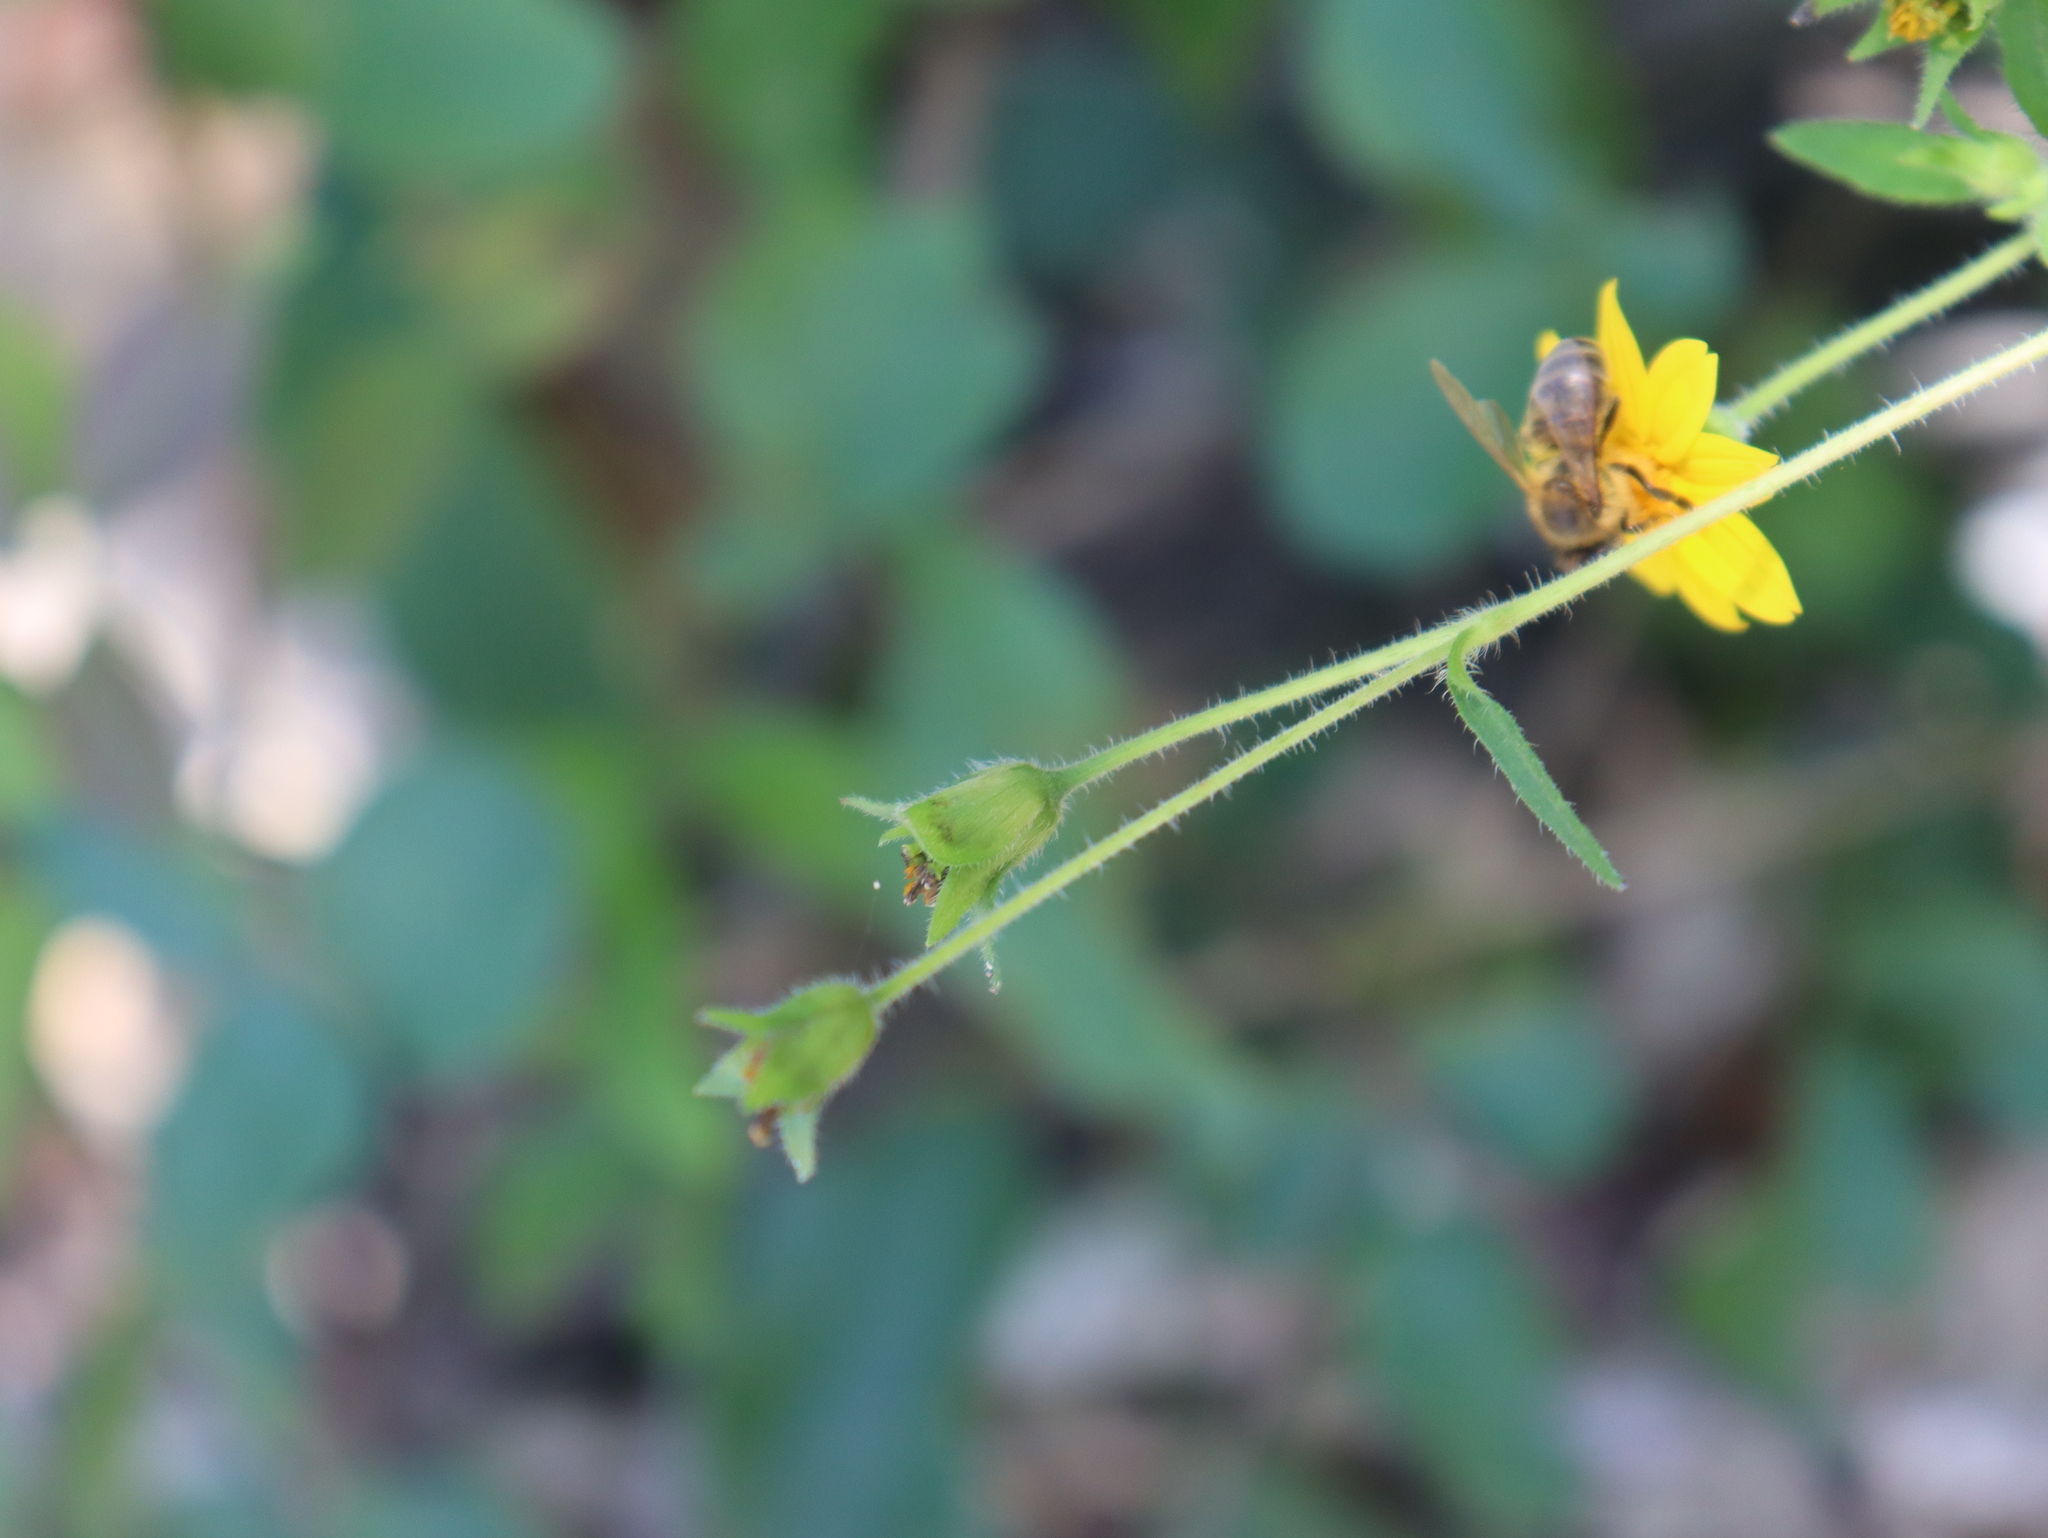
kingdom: Animalia
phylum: Arthropoda
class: Insecta
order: Hymenoptera
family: Apidae
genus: Apis
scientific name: Apis mellifera
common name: Honey bee
